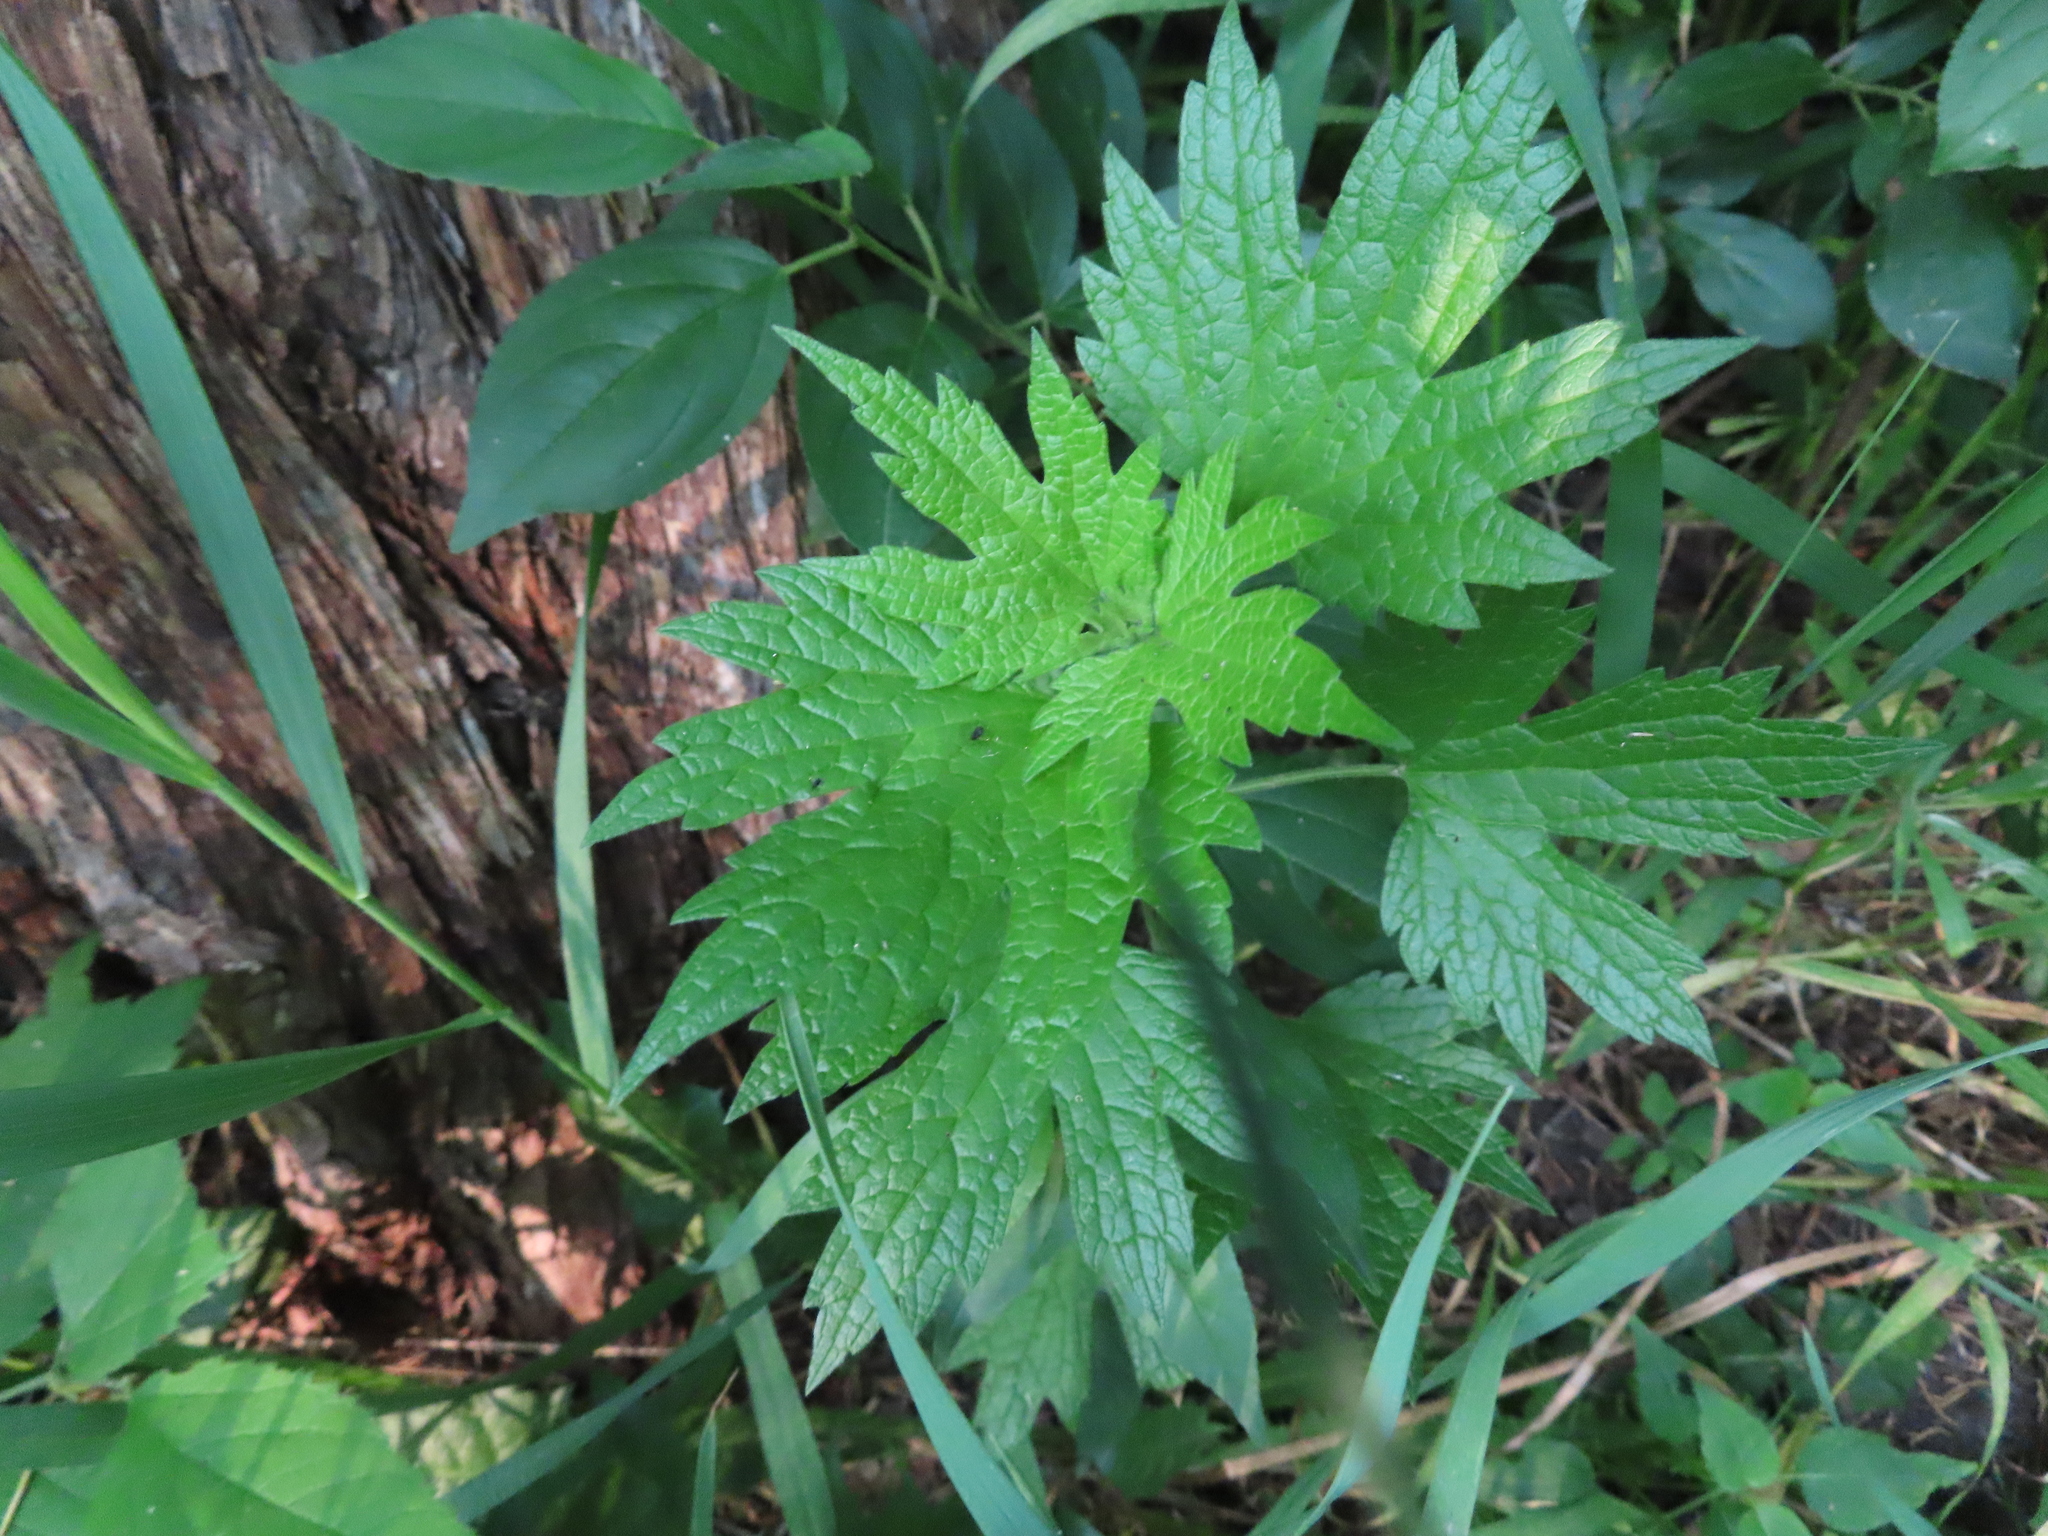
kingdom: Plantae
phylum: Tracheophyta
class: Magnoliopsida
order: Lamiales
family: Lamiaceae
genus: Leonurus
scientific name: Leonurus cardiaca
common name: Motherwort
